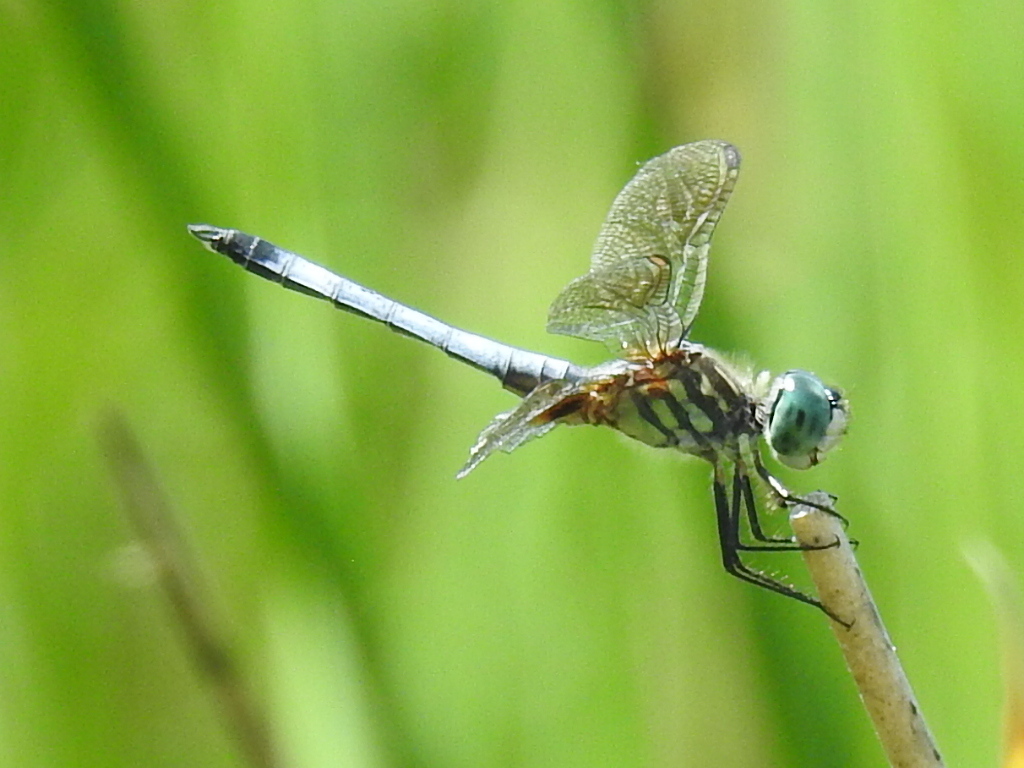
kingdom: Animalia
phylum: Arthropoda
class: Insecta
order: Odonata
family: Libellulidae
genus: Pachydiplax
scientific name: Pachydiplax longipennis
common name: Blue dasher
